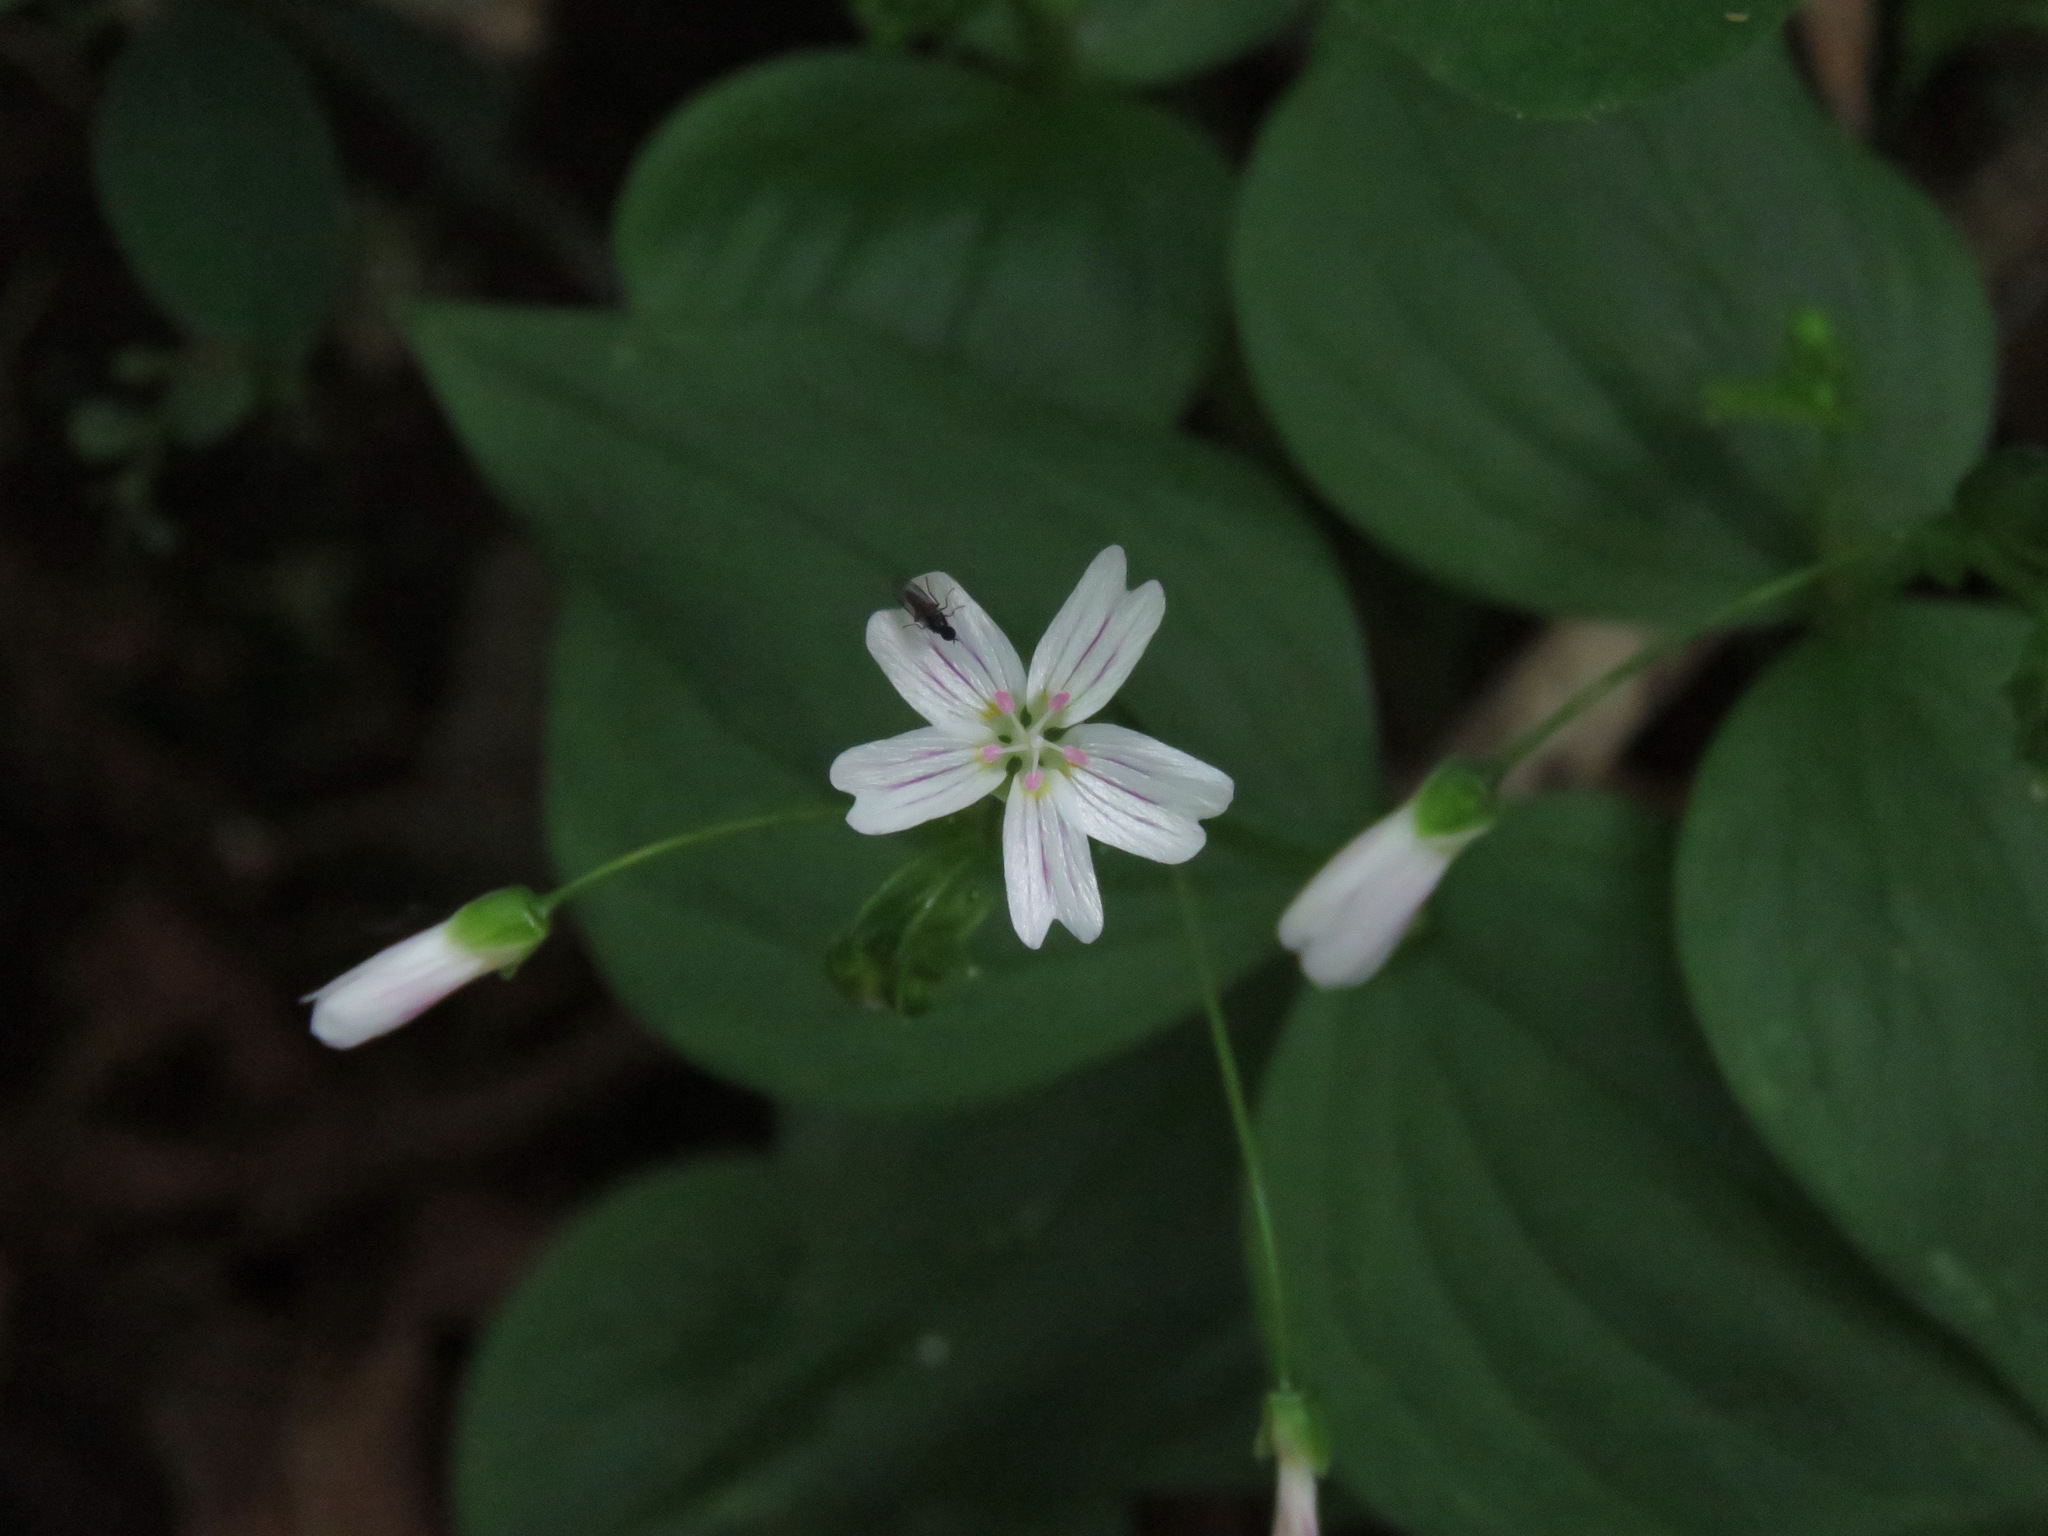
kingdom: Plantae
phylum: Tracheophyta
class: Magnoliopsida
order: Caryophyllales
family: Montiaceae
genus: Claytonia
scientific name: Claytonia sibirica
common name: Pink purslane
